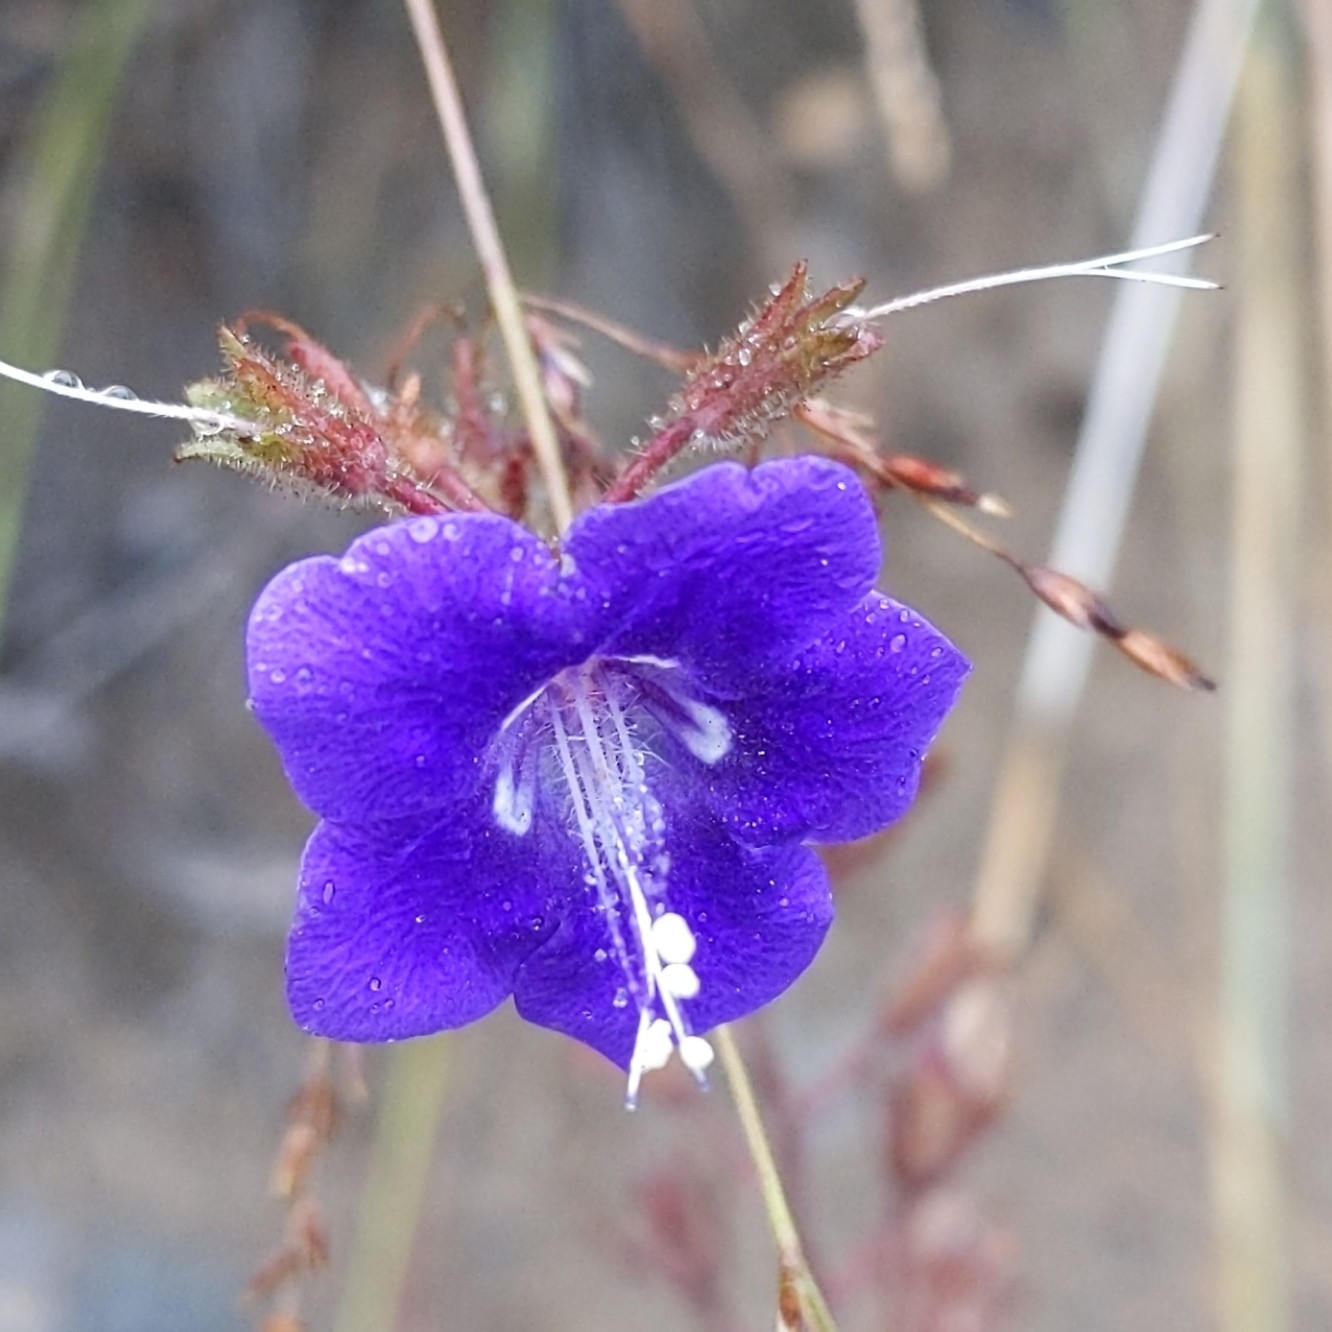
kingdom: Plantae
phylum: Tracheophyta
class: Magnoliopsida
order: Boraginales
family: Hydrophyllaceae
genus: Phacelia
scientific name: Phacelia parryi
